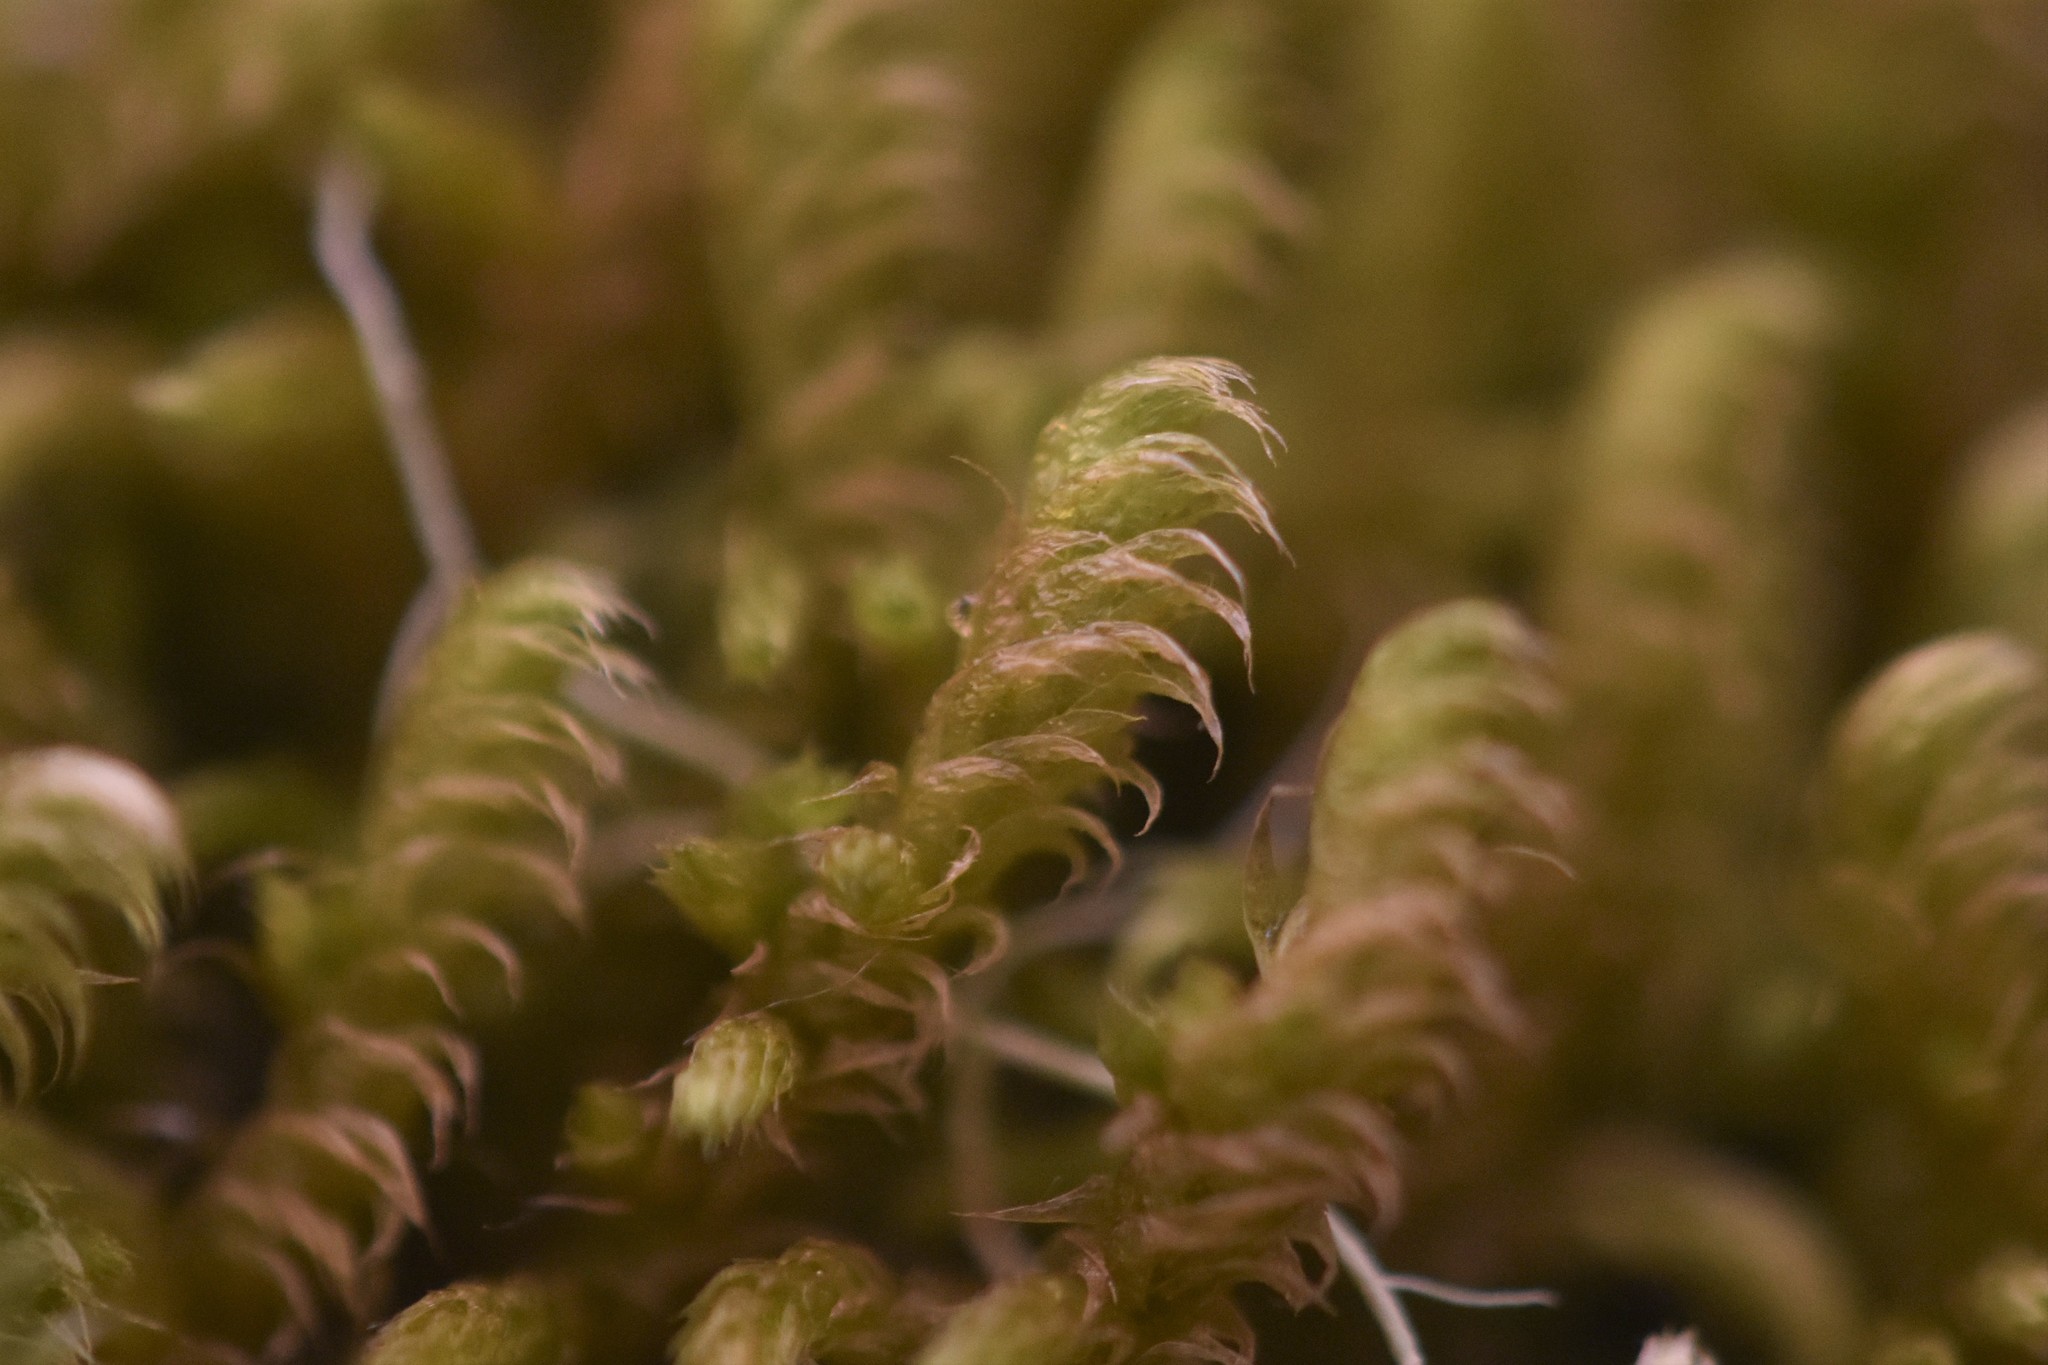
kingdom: Plantae
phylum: Bryophyta
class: Bryopsida
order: Hypnales
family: Rhytidiaceae
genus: Rhytidium
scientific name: Rhytidium rugosum
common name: Wrinkle-leaved moss
